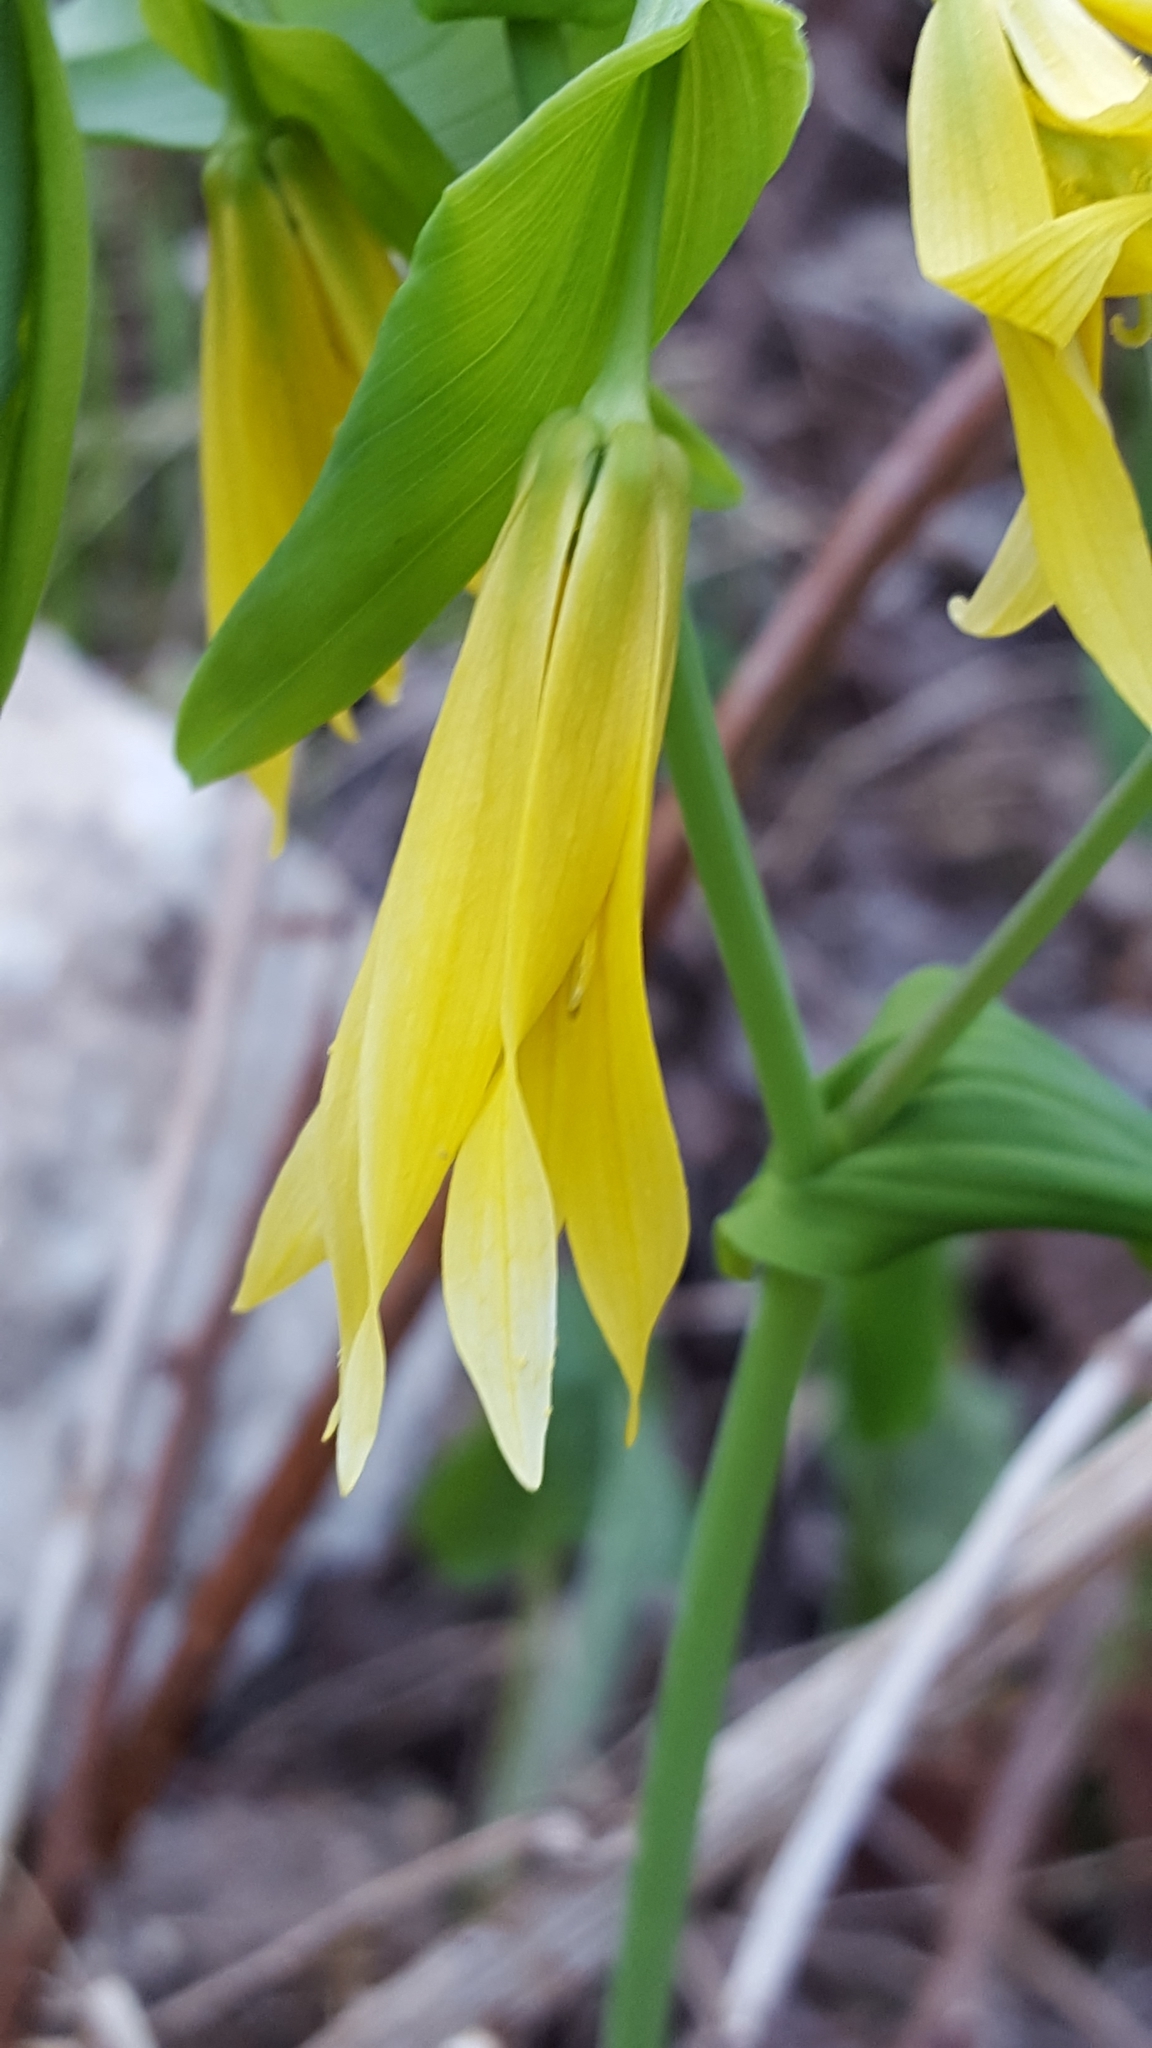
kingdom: Plantae
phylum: Tracheophyta
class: Liliopsida
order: Liliales
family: Colchicaceae
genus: Uvularia
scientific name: Uvularia grandiflora
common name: Bellwort
